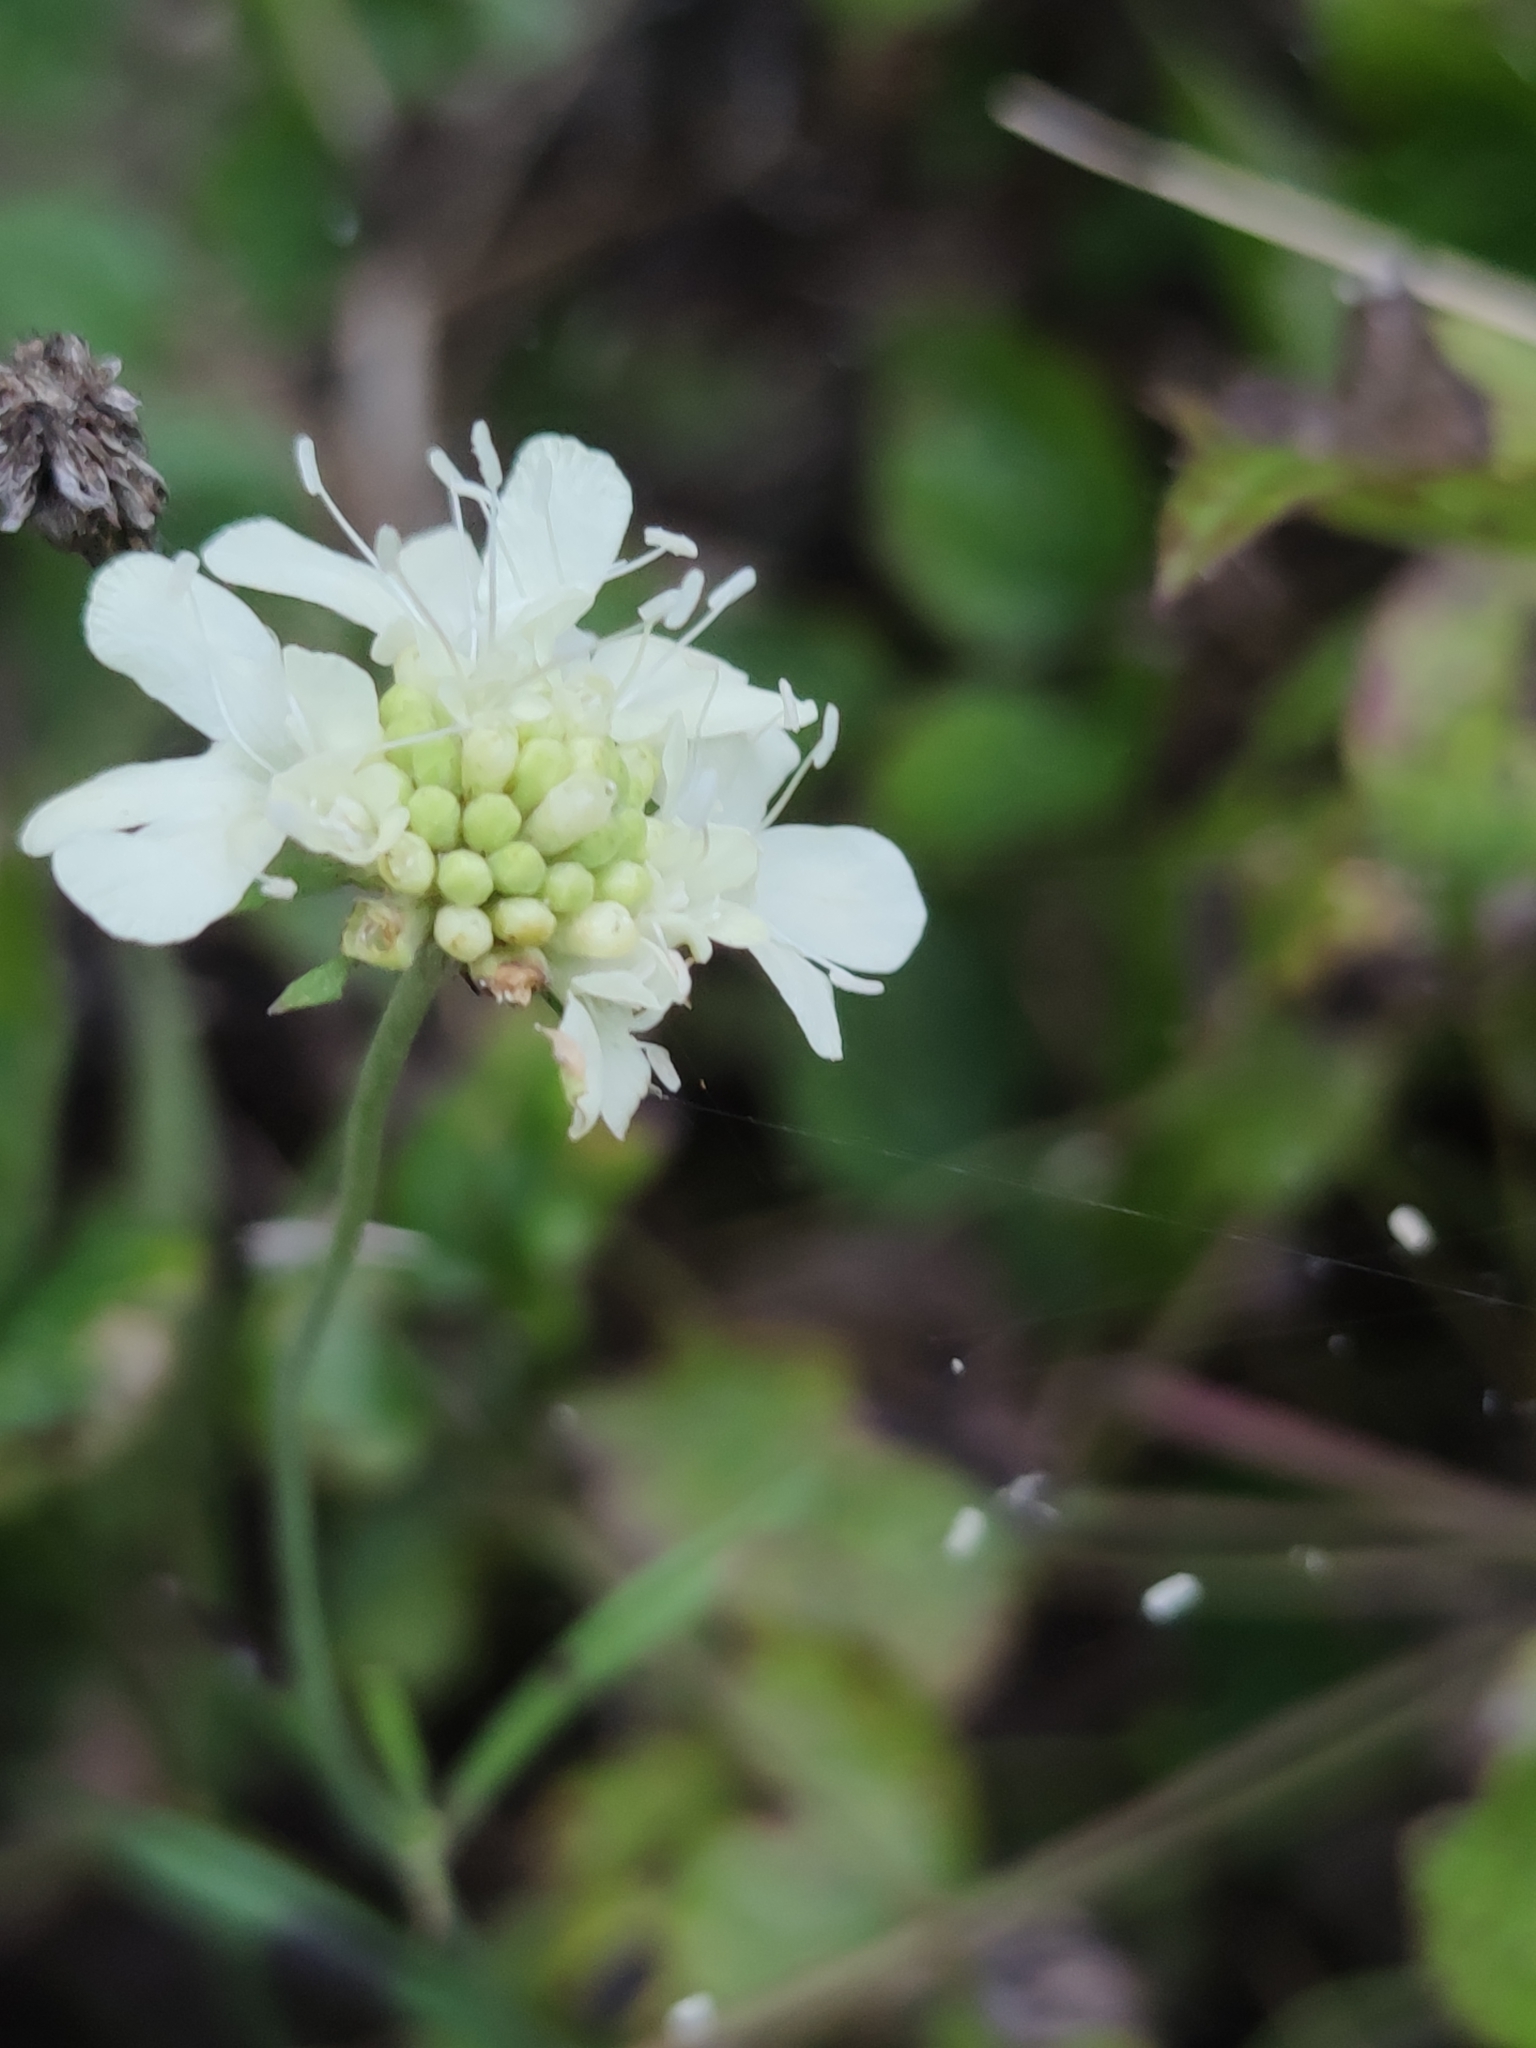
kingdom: Plantae
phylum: Tracheophyta
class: Magnoliopsida
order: Dipsacales
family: Caprifoliaceae
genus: Scabiosa
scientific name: Scabiosa ochroleuca
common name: Cream pincushions
